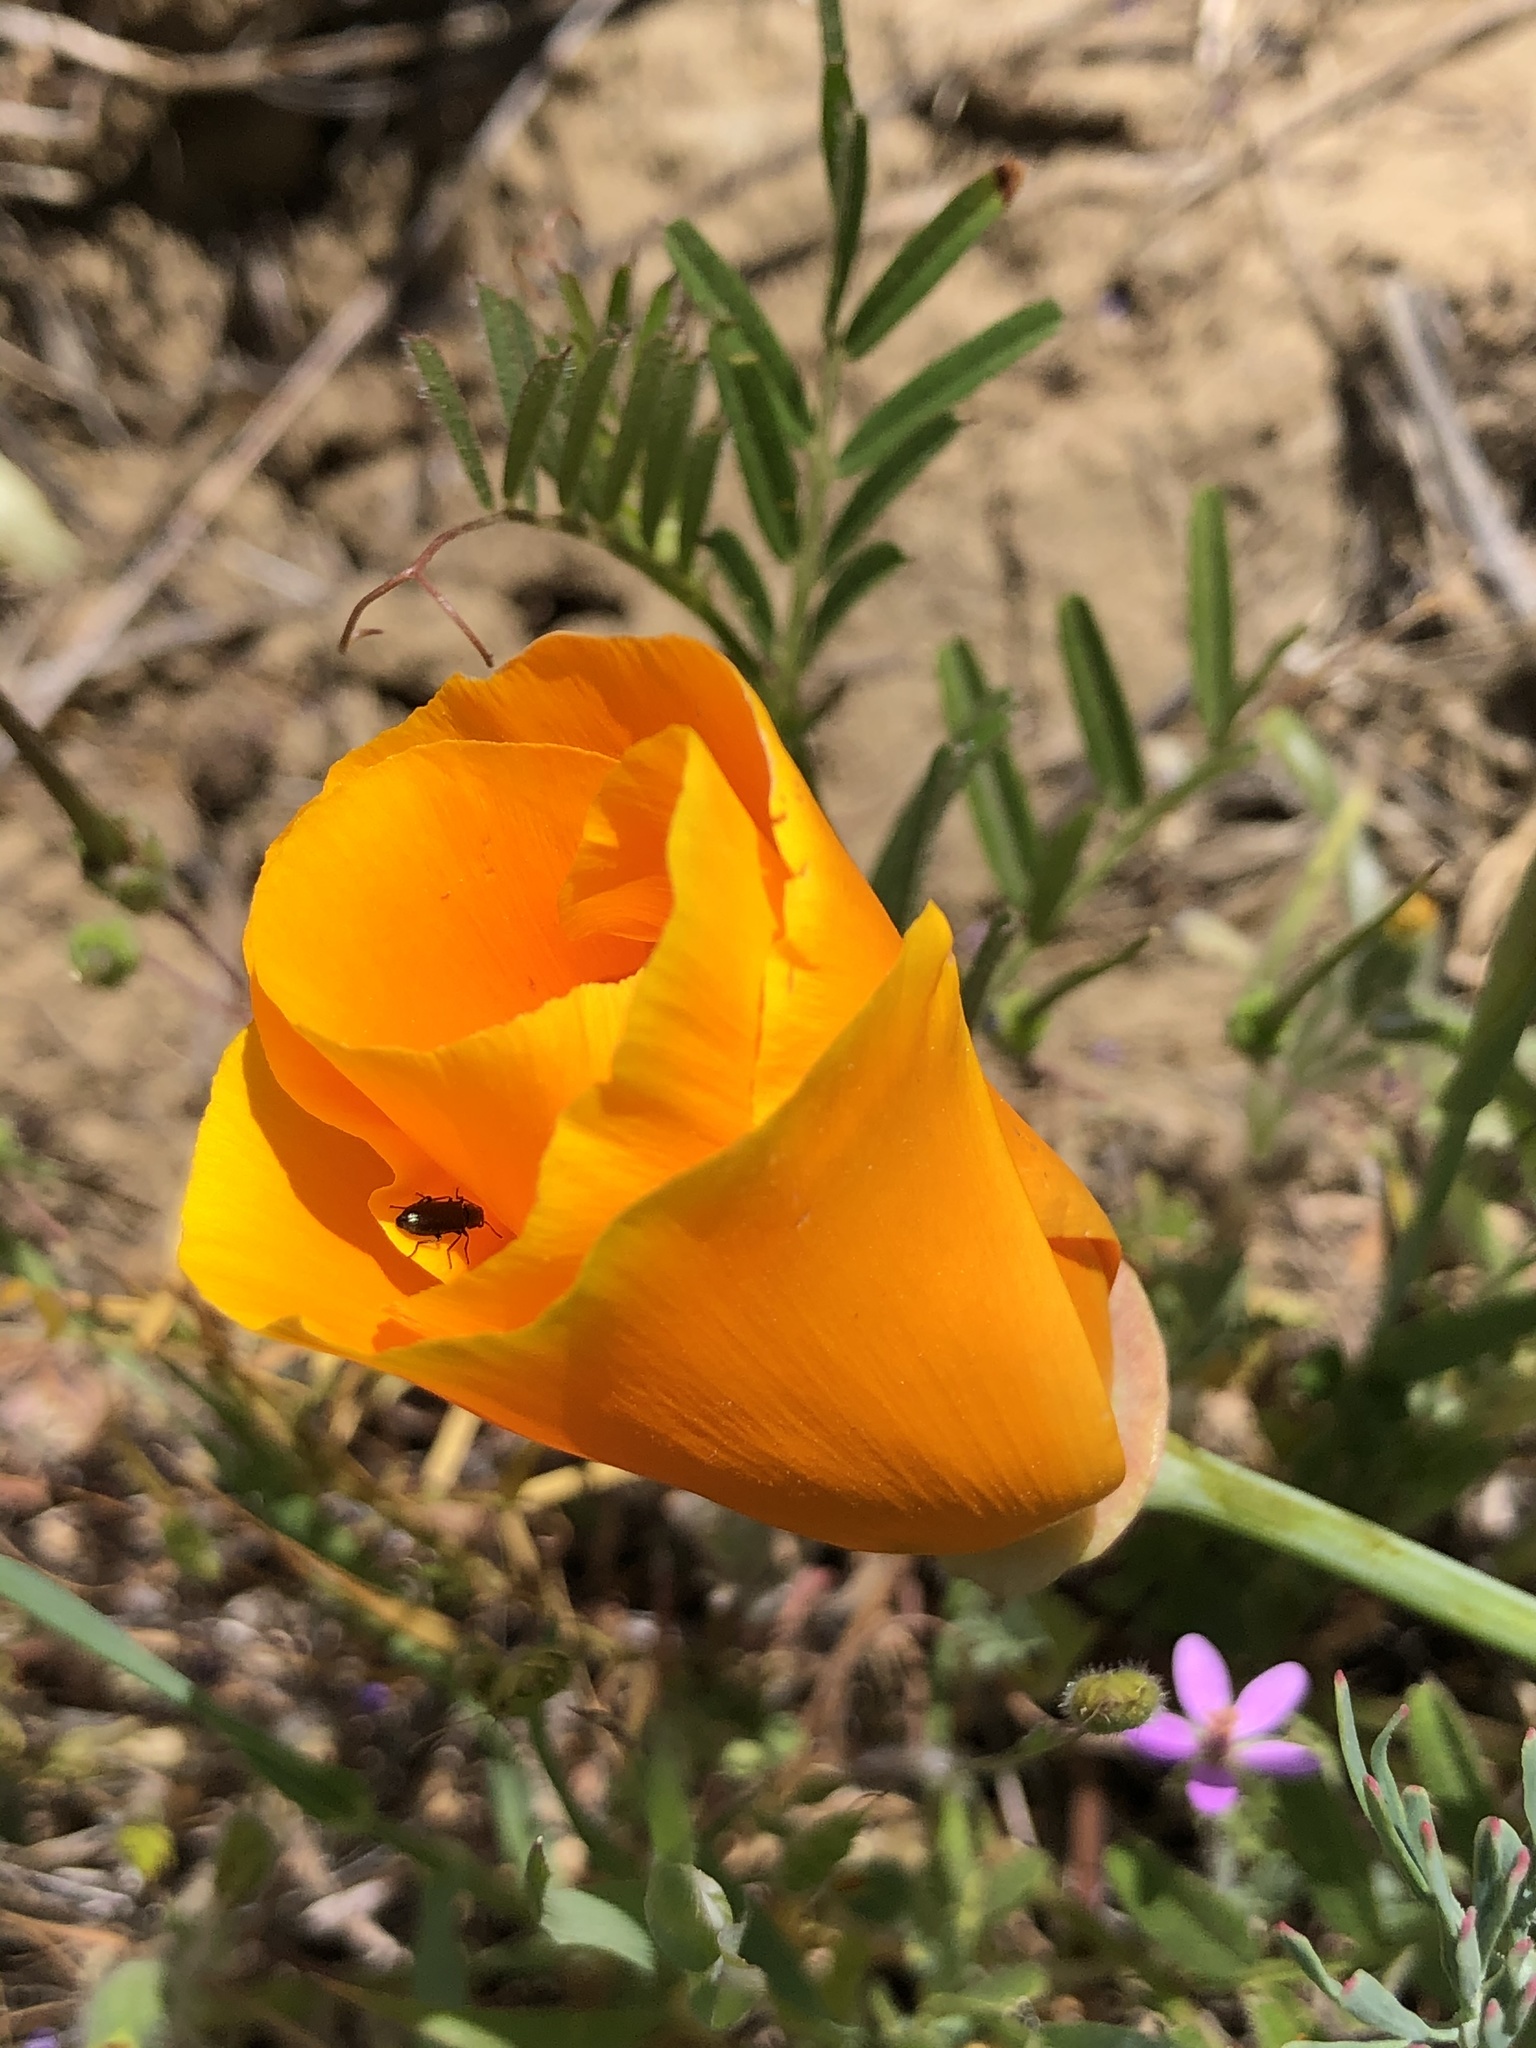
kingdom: Plantae
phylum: Tracheophyta
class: Magnoliopsida
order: Ranunculales
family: Papaveraceae
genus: Eschscholzia
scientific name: Eschscholzia californica
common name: California poppy
